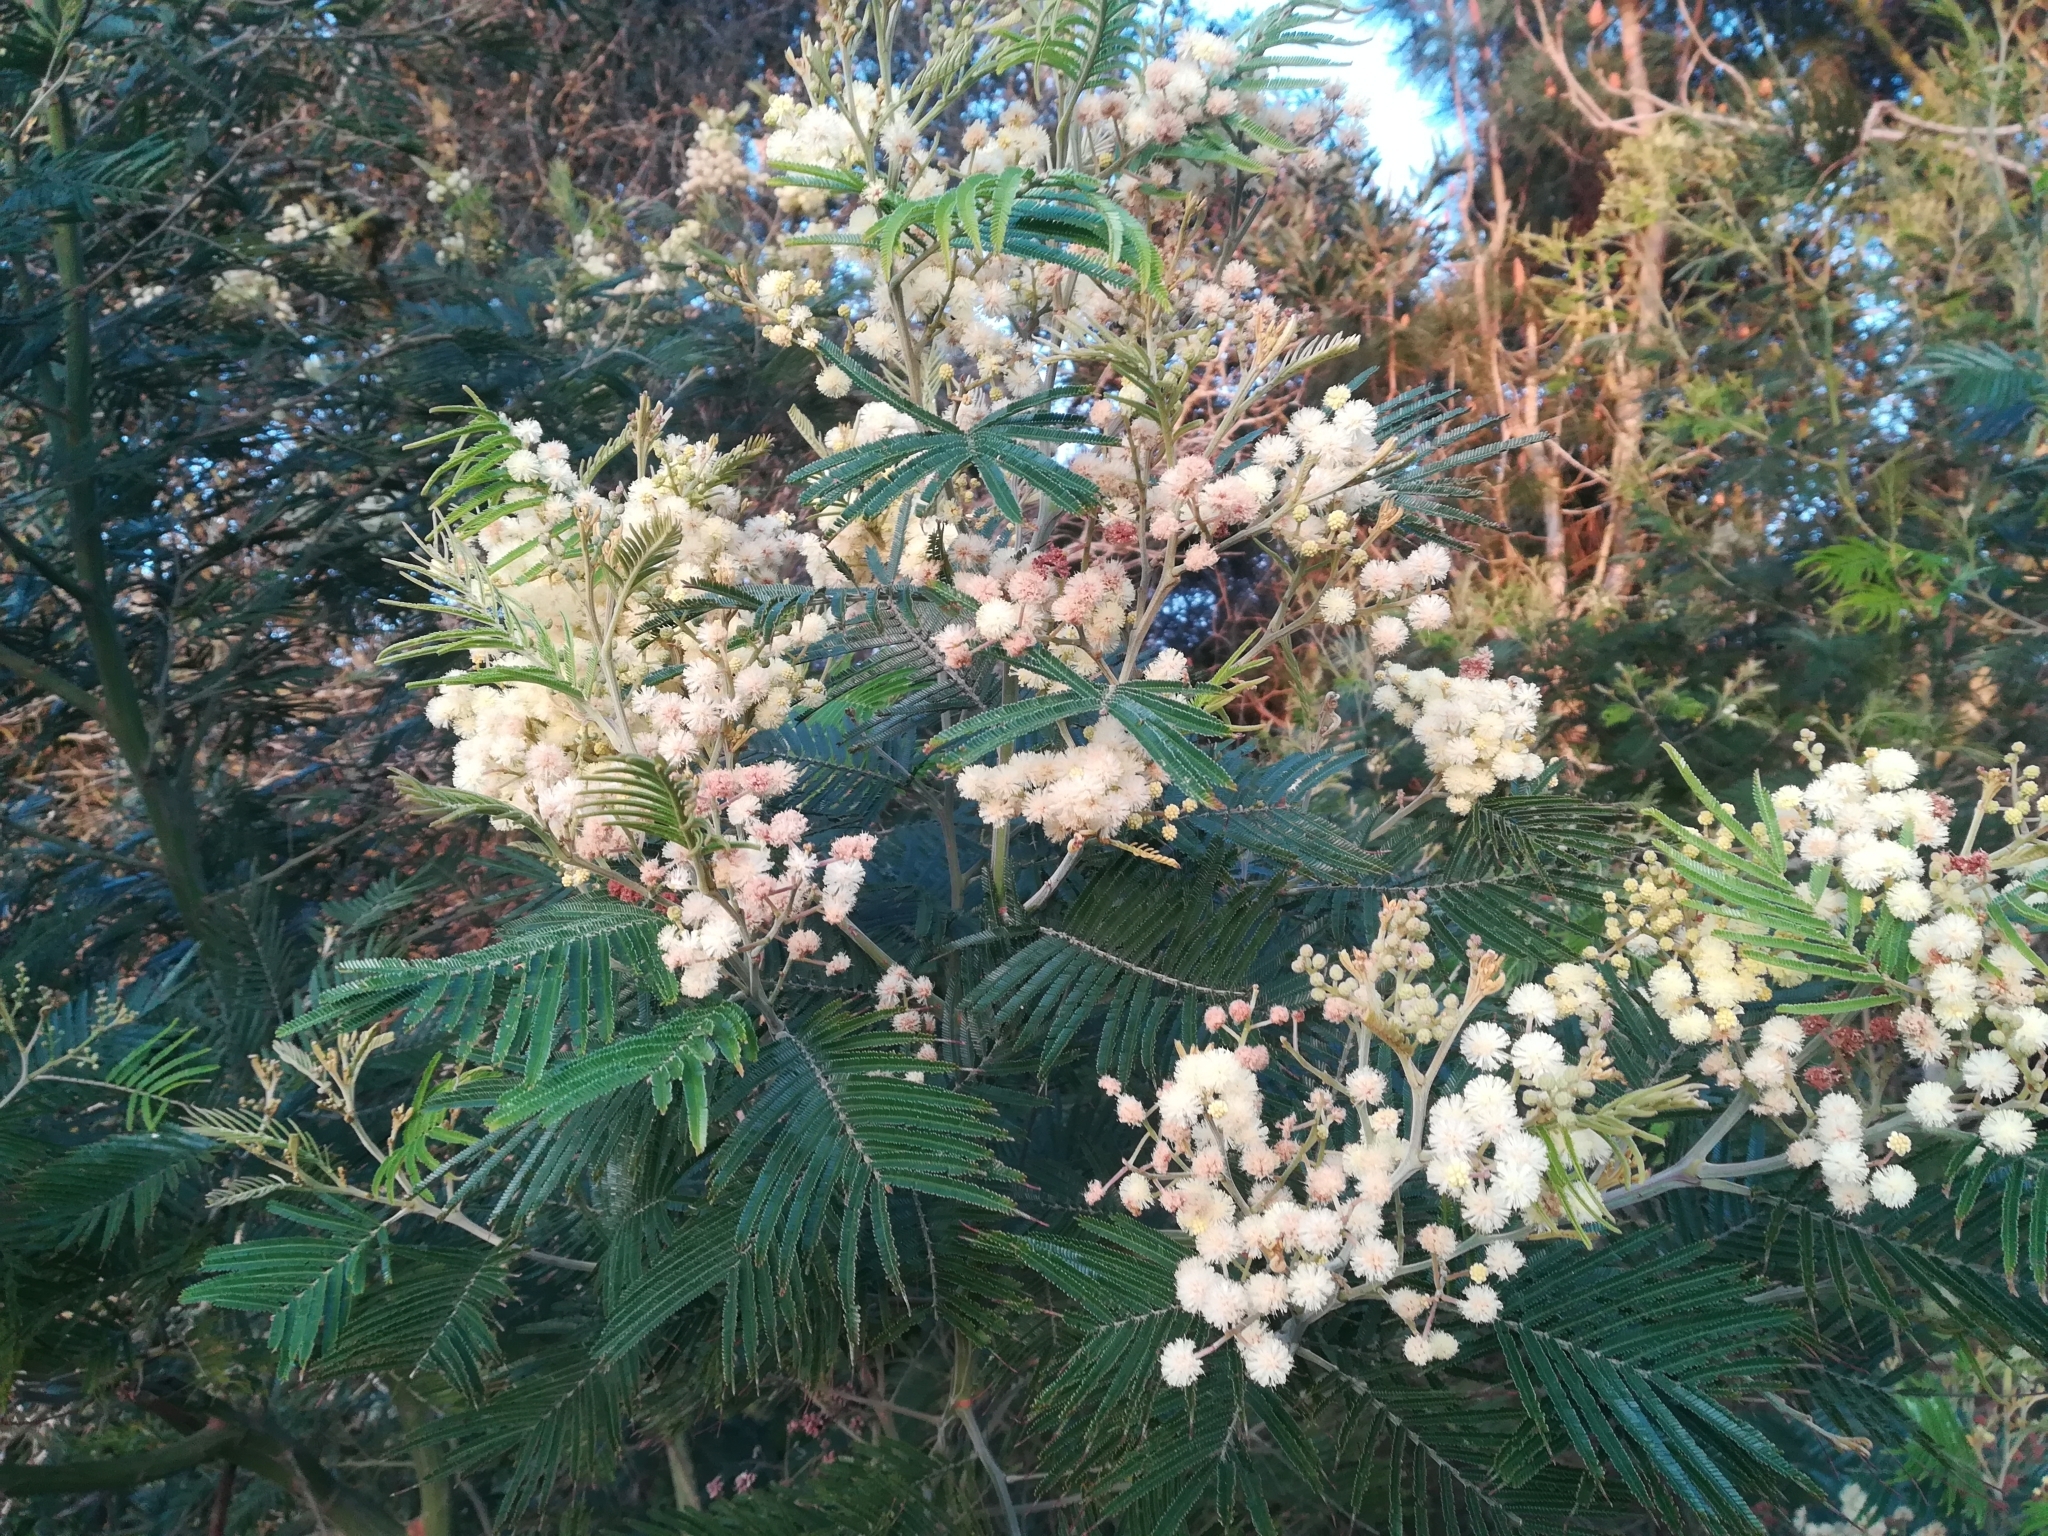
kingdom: Plantae
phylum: Tracheophyta
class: Magnoliopsida
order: Fabales
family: Fabaceae
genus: Acacia
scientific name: Acacia mearnsii
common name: Black wattle
